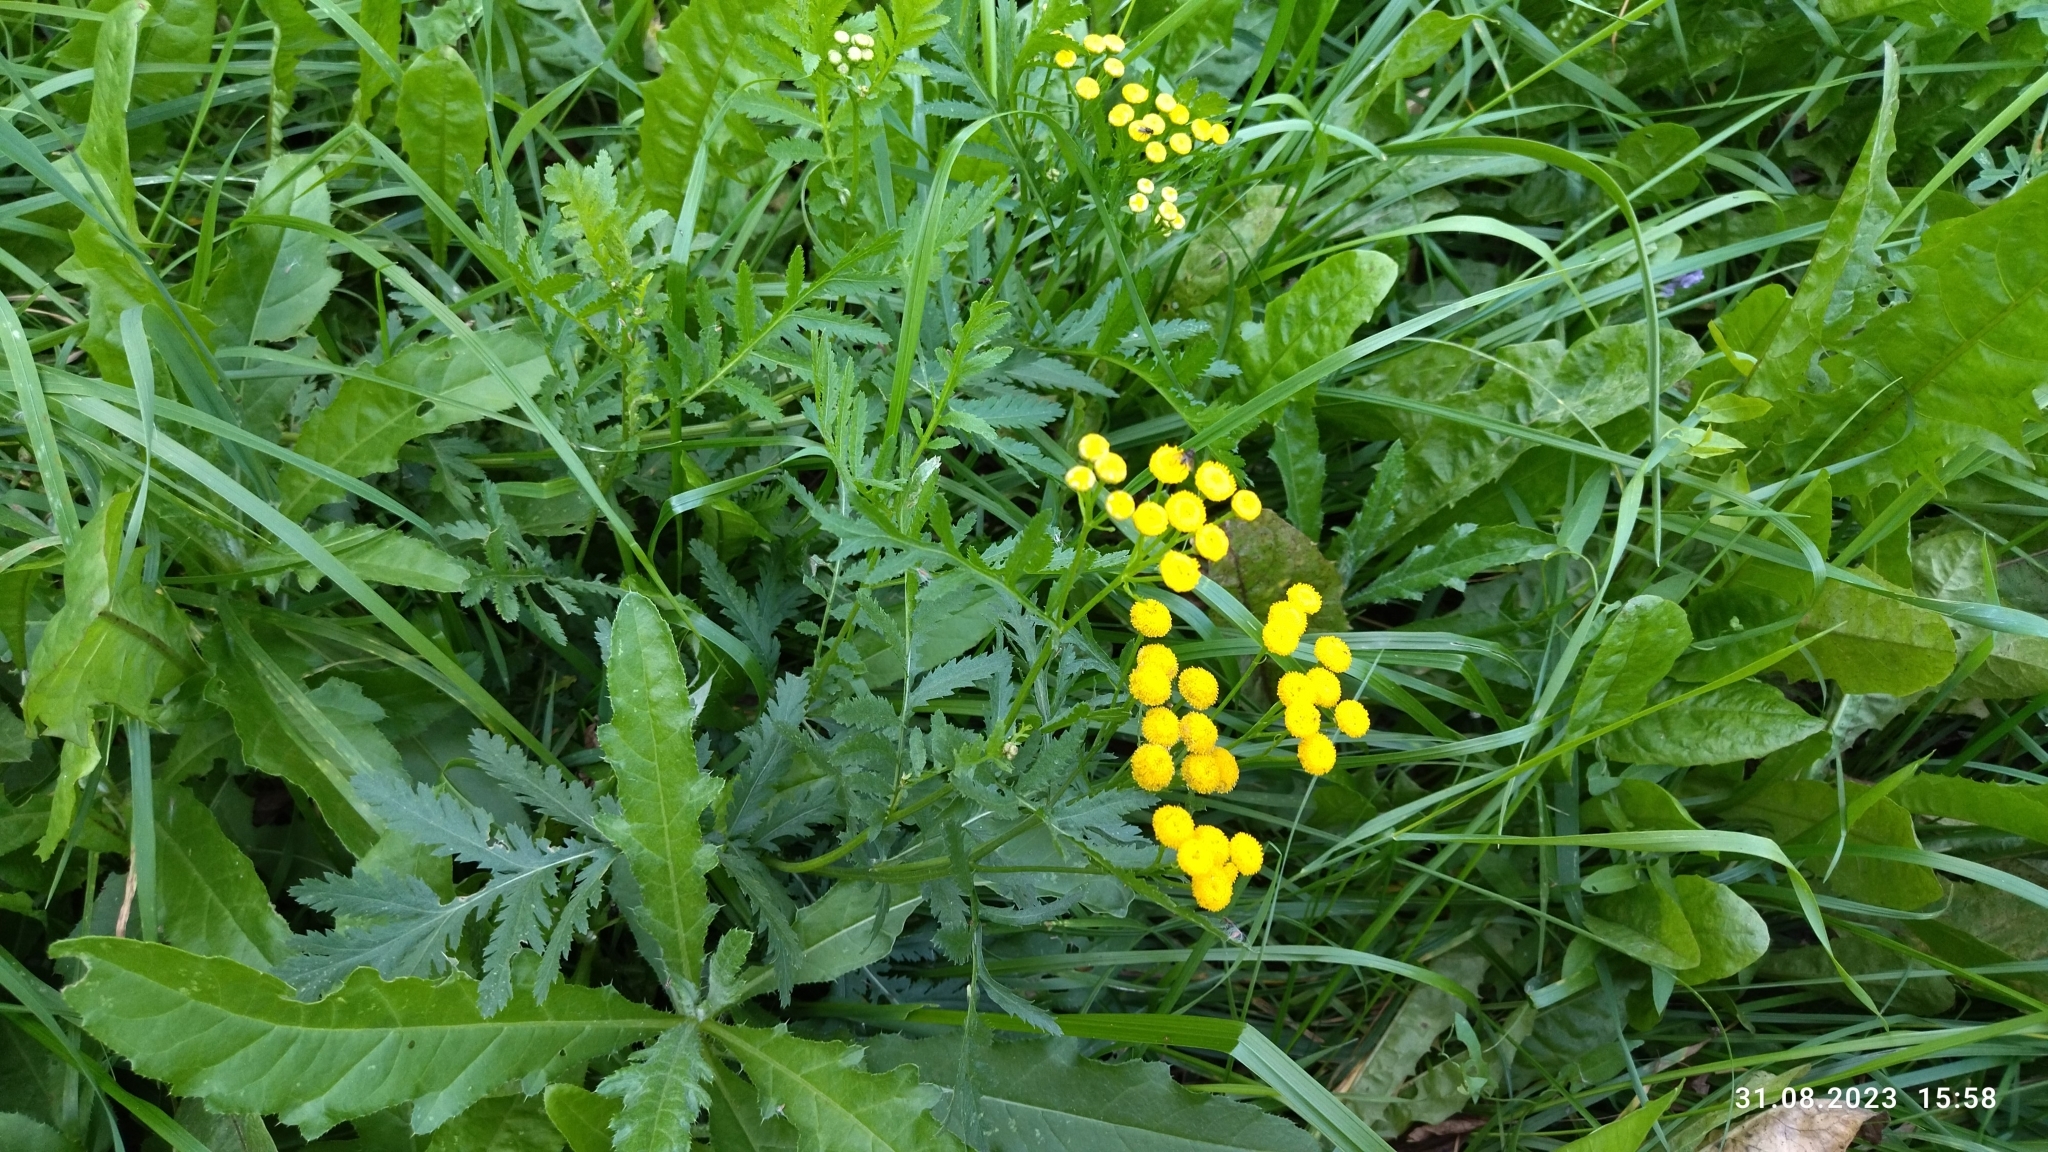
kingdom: Plantae
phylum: Tracheophyta
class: Magnoliopsida
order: Asterales
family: Asteraceae
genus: Tanacetum
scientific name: Tanacetum vulgare
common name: Common tansy
